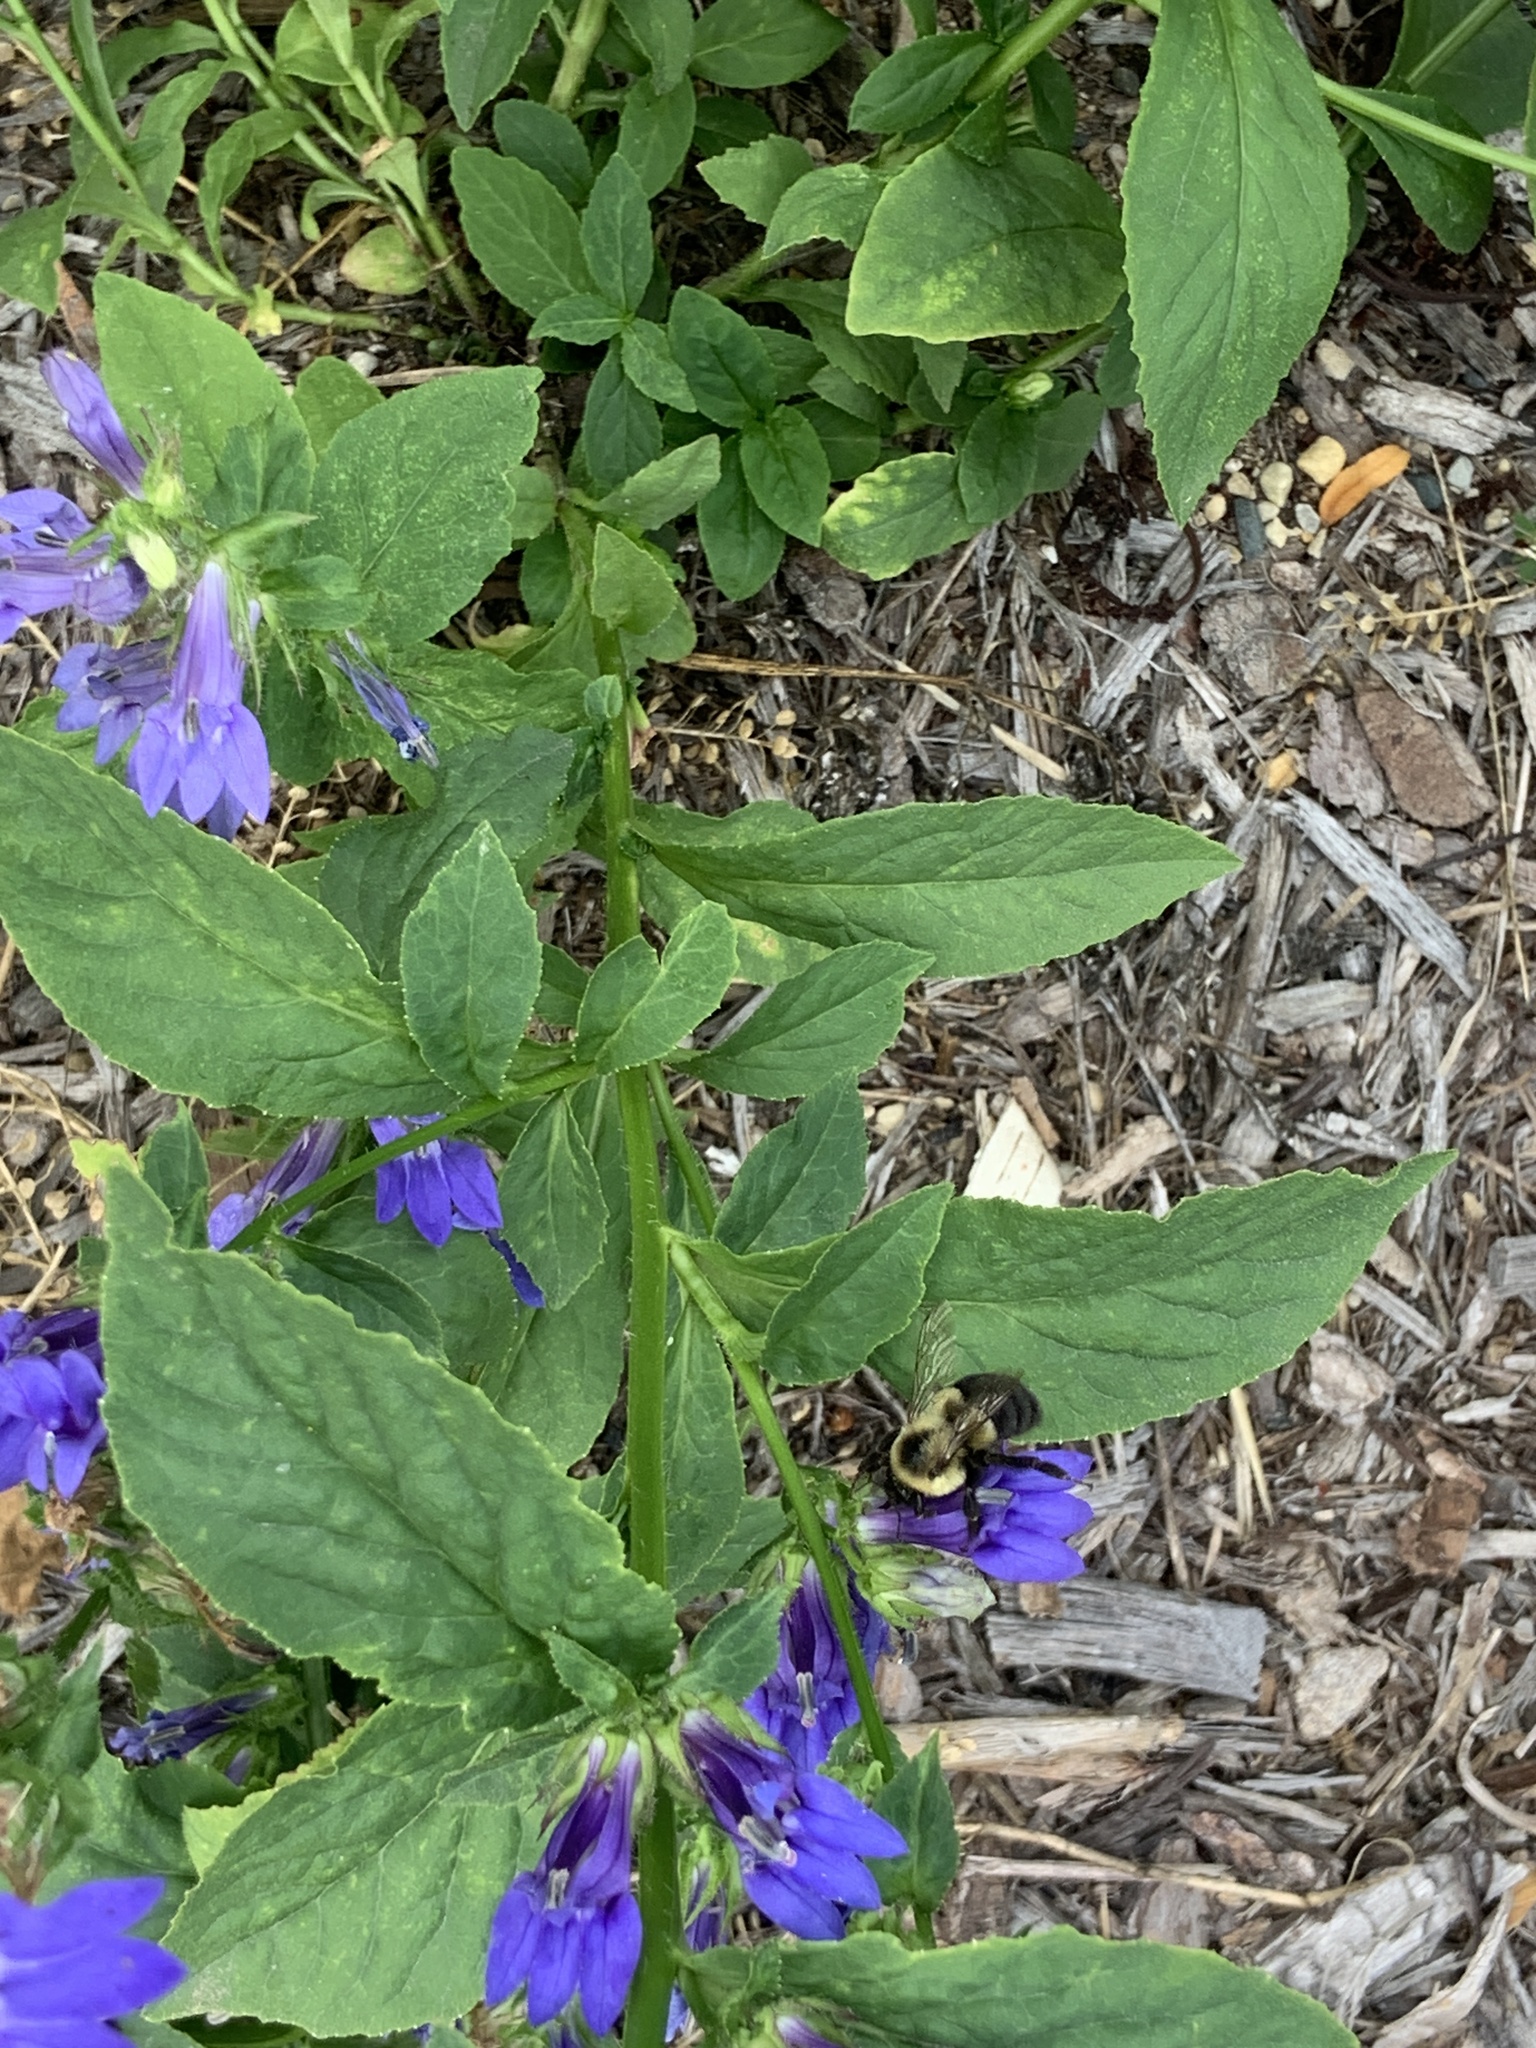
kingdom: Animalia
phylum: Arthropoda
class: Insecta
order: Hymenoptera
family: Apidae
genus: Bombus
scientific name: Bombus impatiens
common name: Common eastern bumble bee
